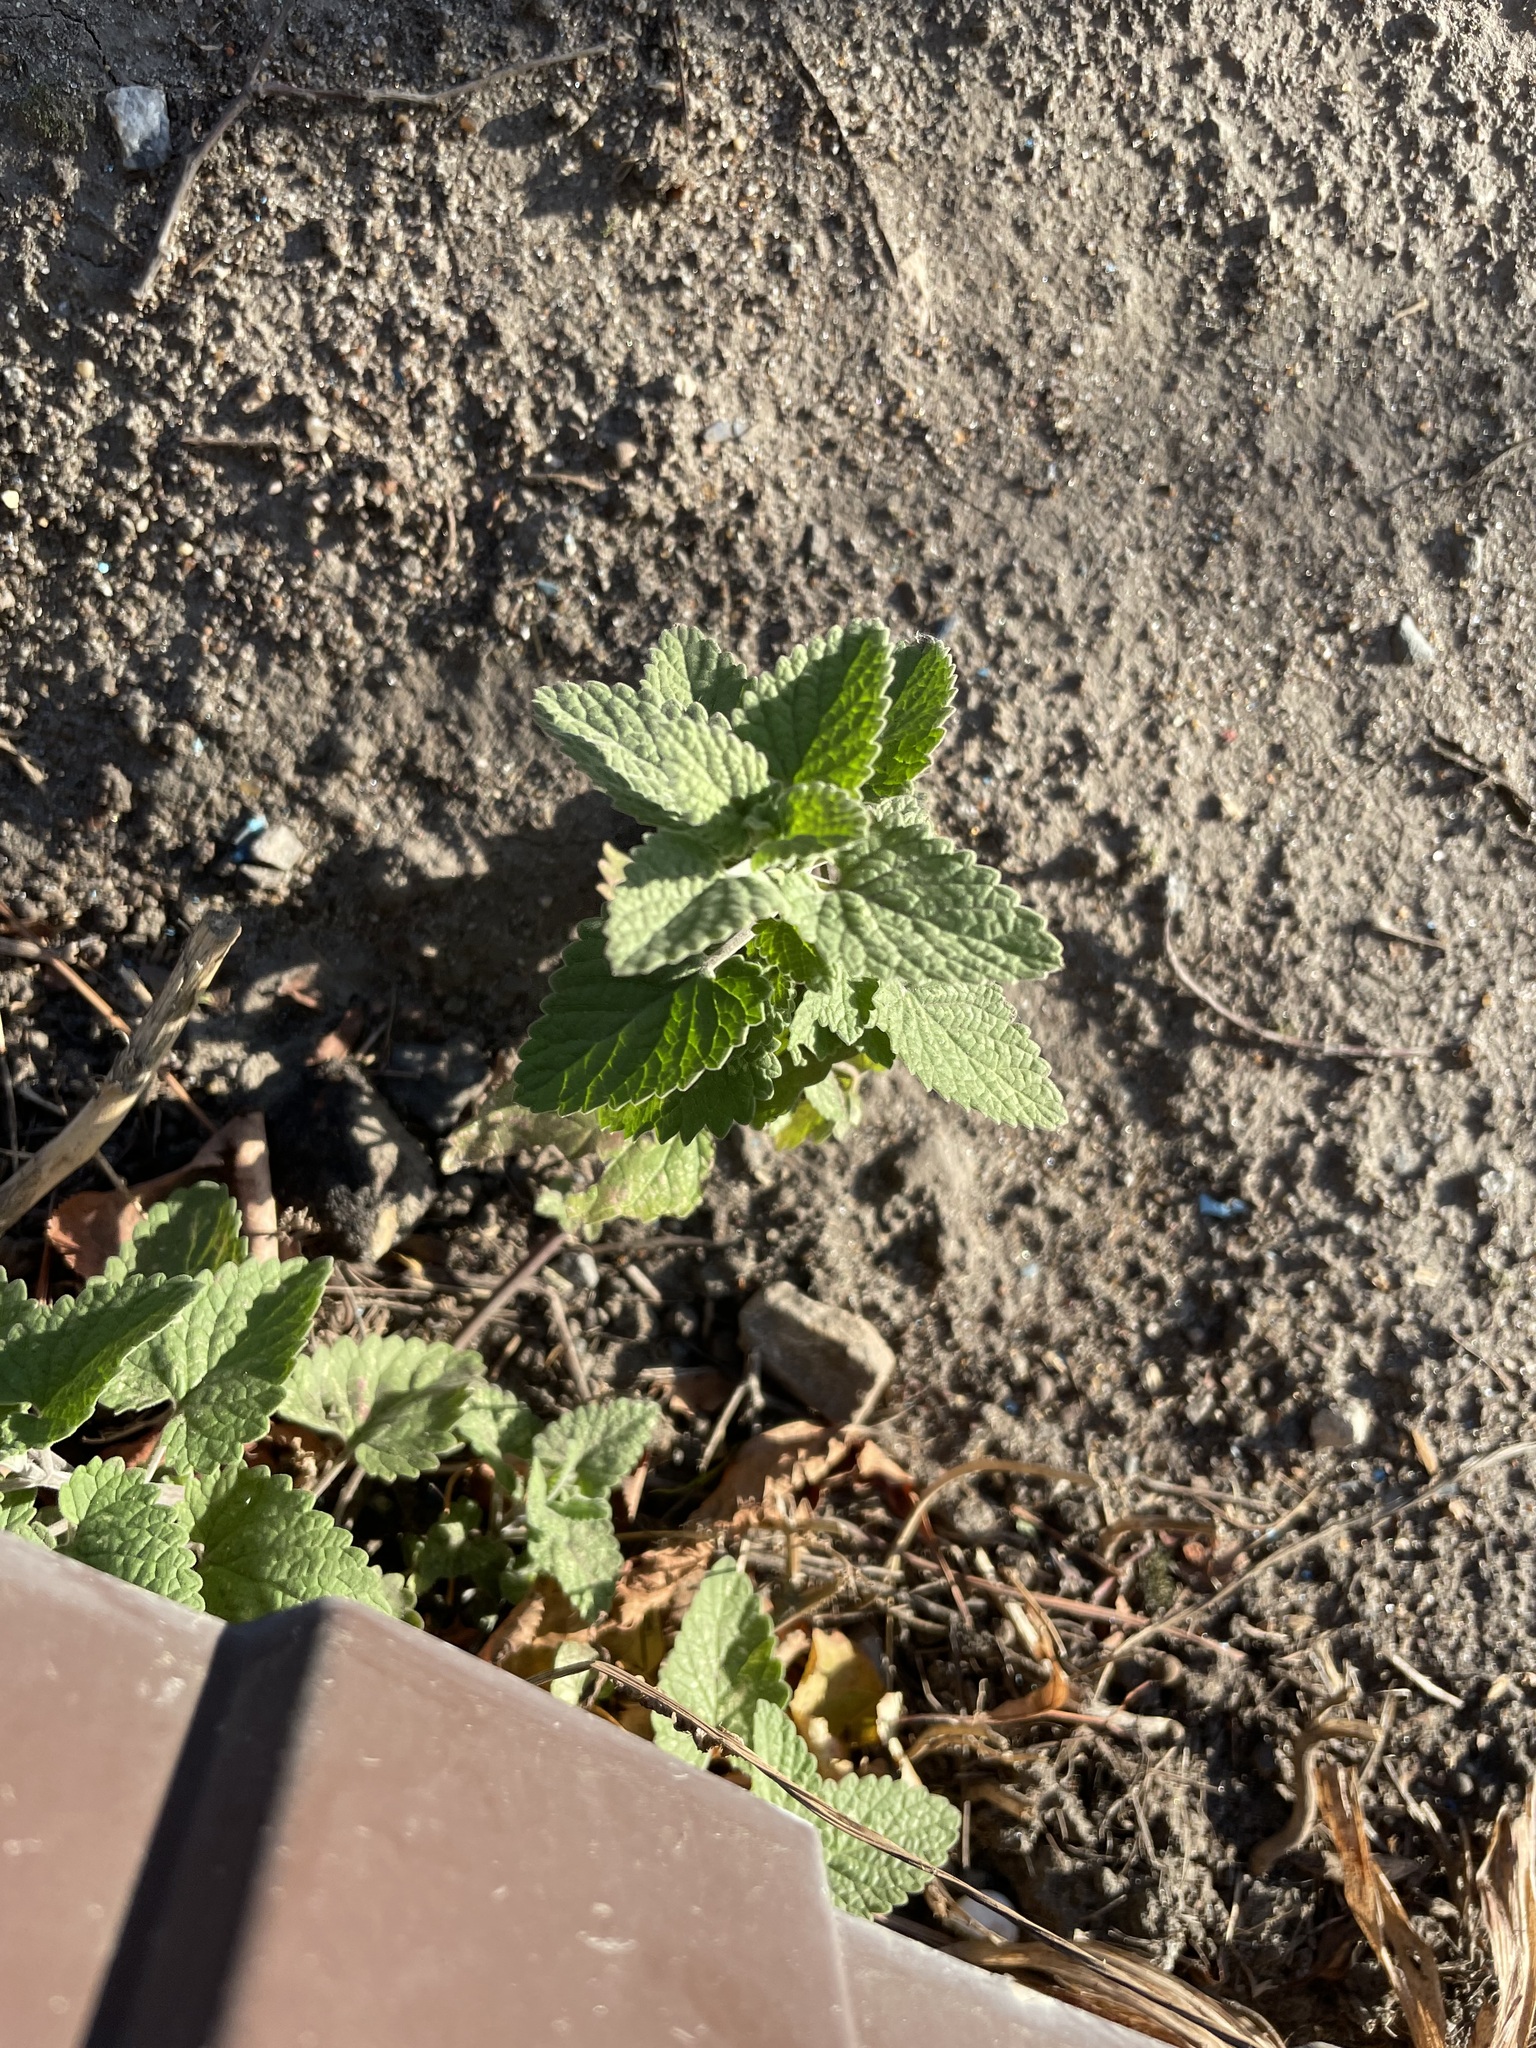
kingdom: Plantae
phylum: Tracheophyta
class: Magnoliopsida
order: Lamiales
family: Lamiaceae
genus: Nepeta
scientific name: Nepeta cataria
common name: Catnip
